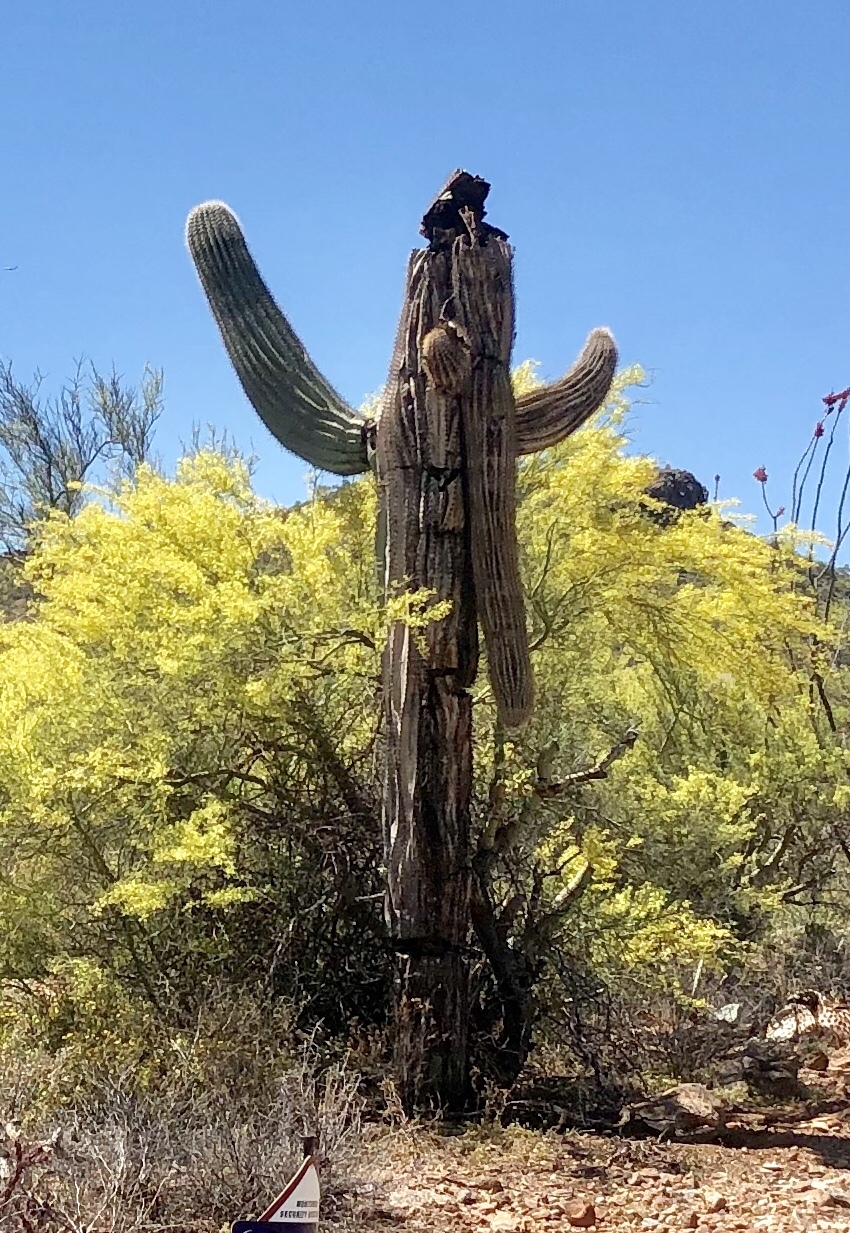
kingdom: Plantae
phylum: Tracheophyta
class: Magnoliopsida
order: Caryophyllales
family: Cactaceae
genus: Carnegiea
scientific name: Carnegiea gigantea
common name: Saguaro
